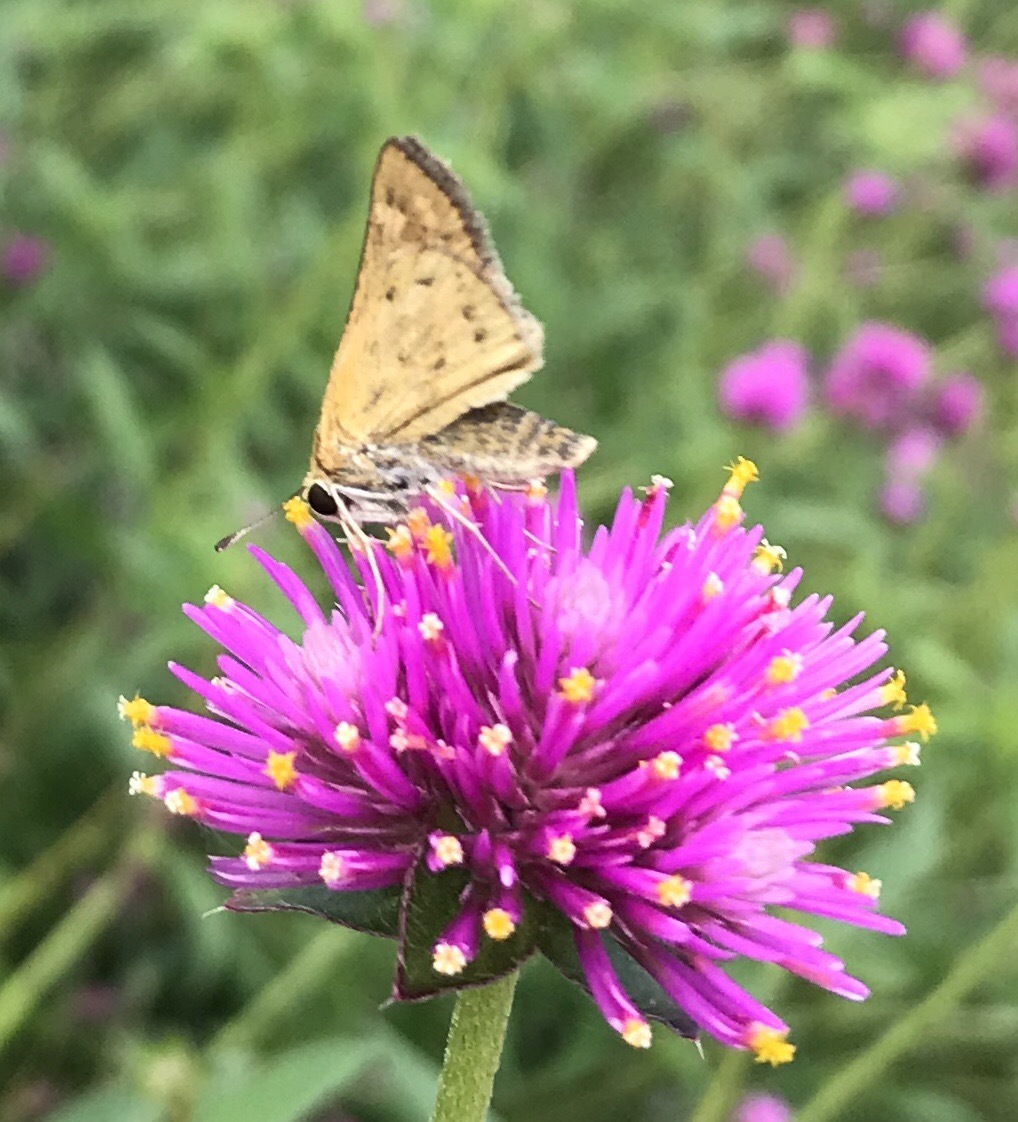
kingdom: Animalia
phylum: Arthropoda
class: Insecta
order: Lepidoptera
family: Hesperiidae
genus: Hylephila
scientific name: Hylephila phyleus
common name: Fiery skipper
